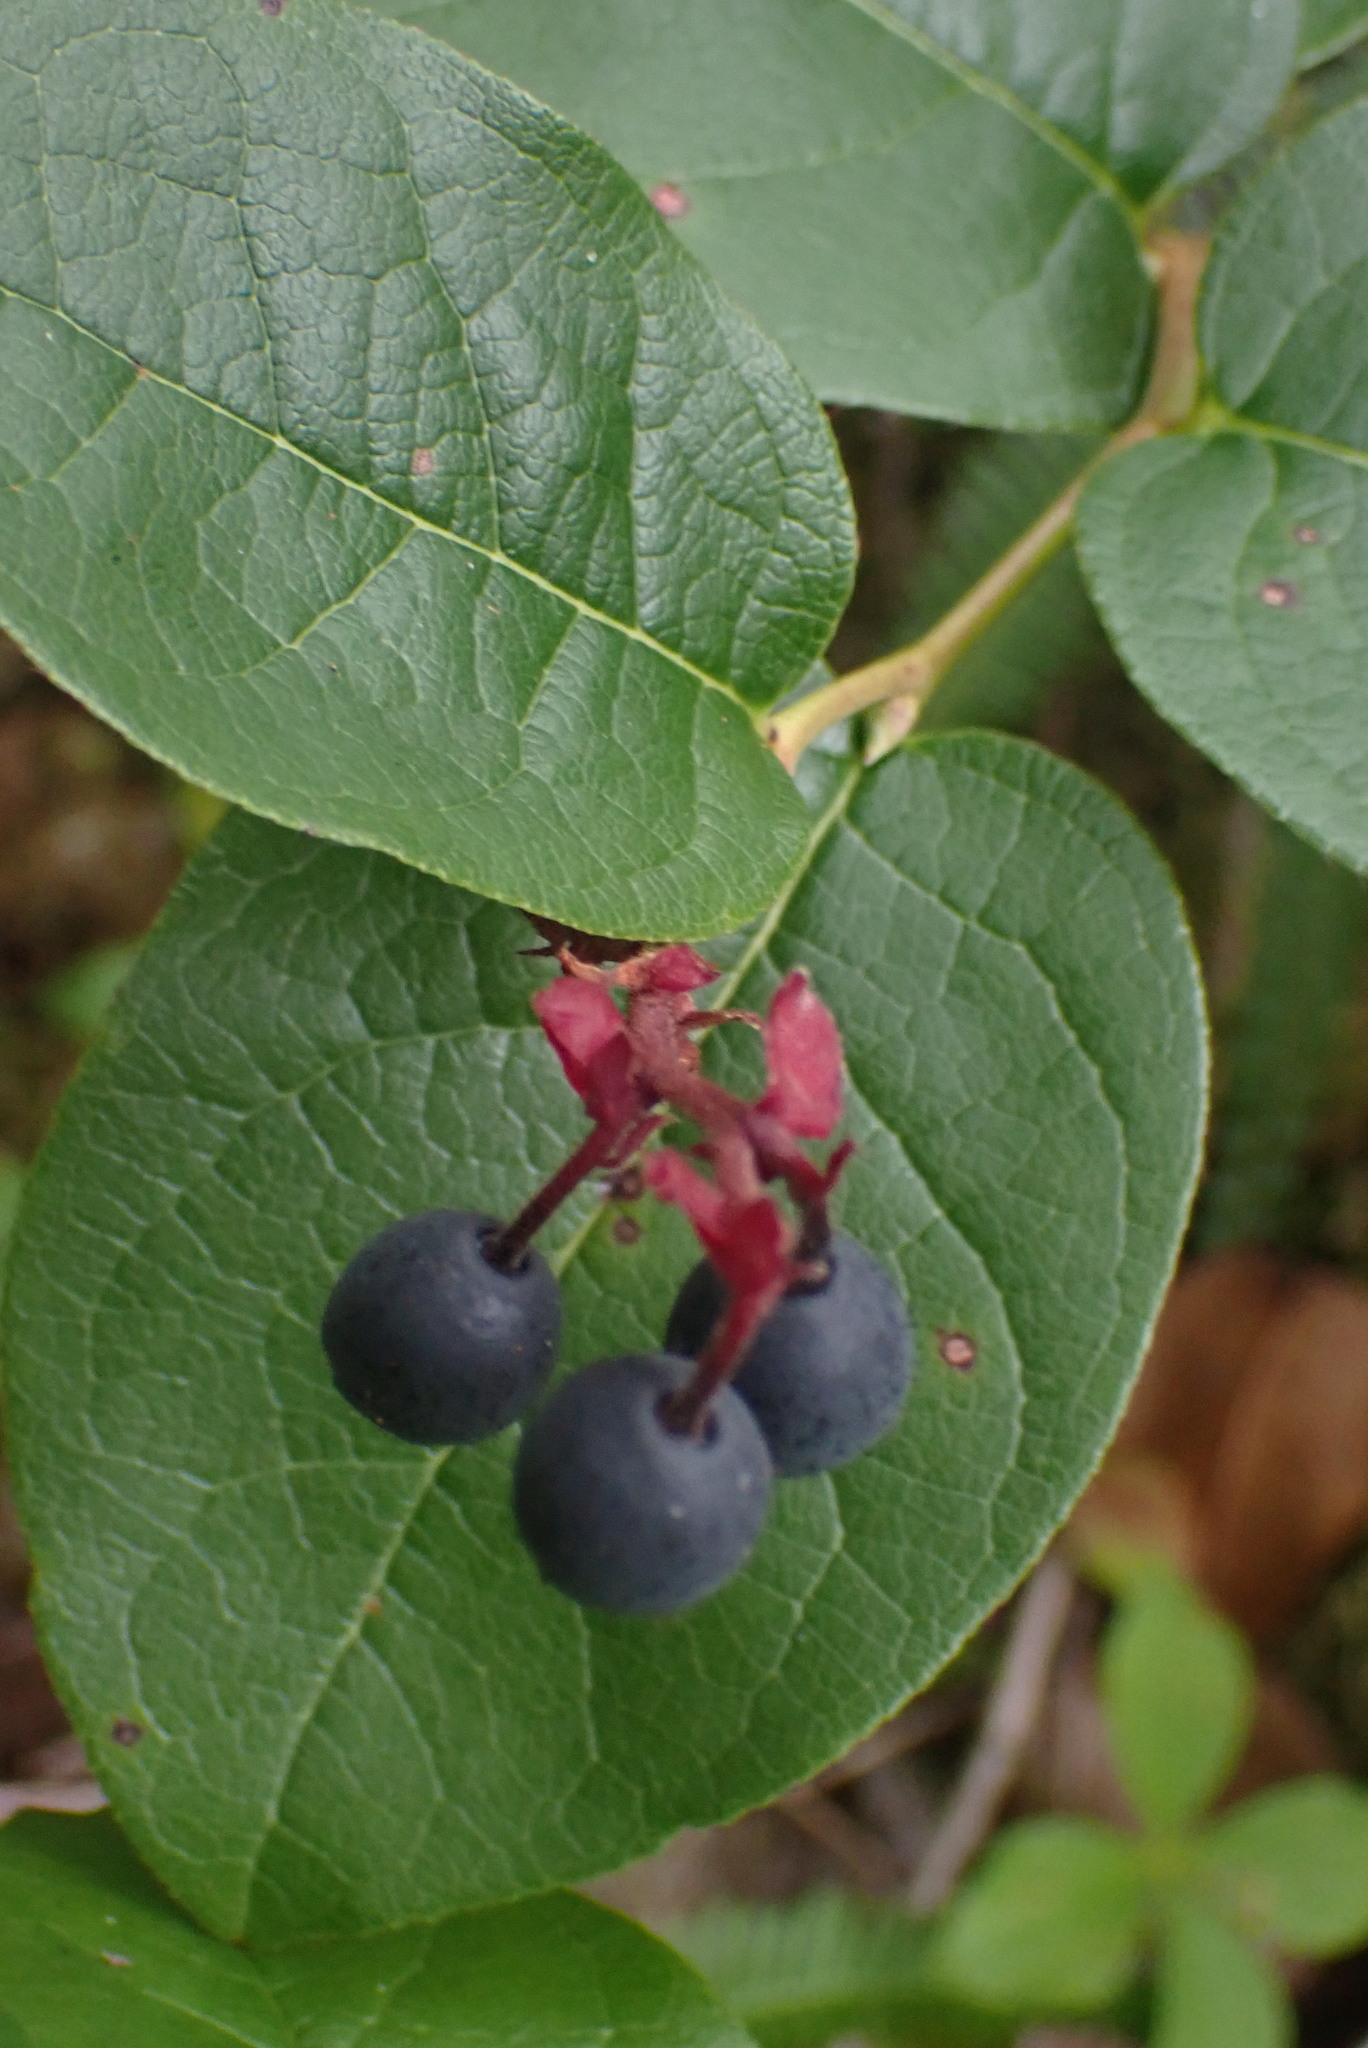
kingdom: Plantae
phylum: Tracheophyta
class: Magnoliopsida
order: Ericales
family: Ericaceae
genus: Gaultheria
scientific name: Gaultheria shallon
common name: Shallon
